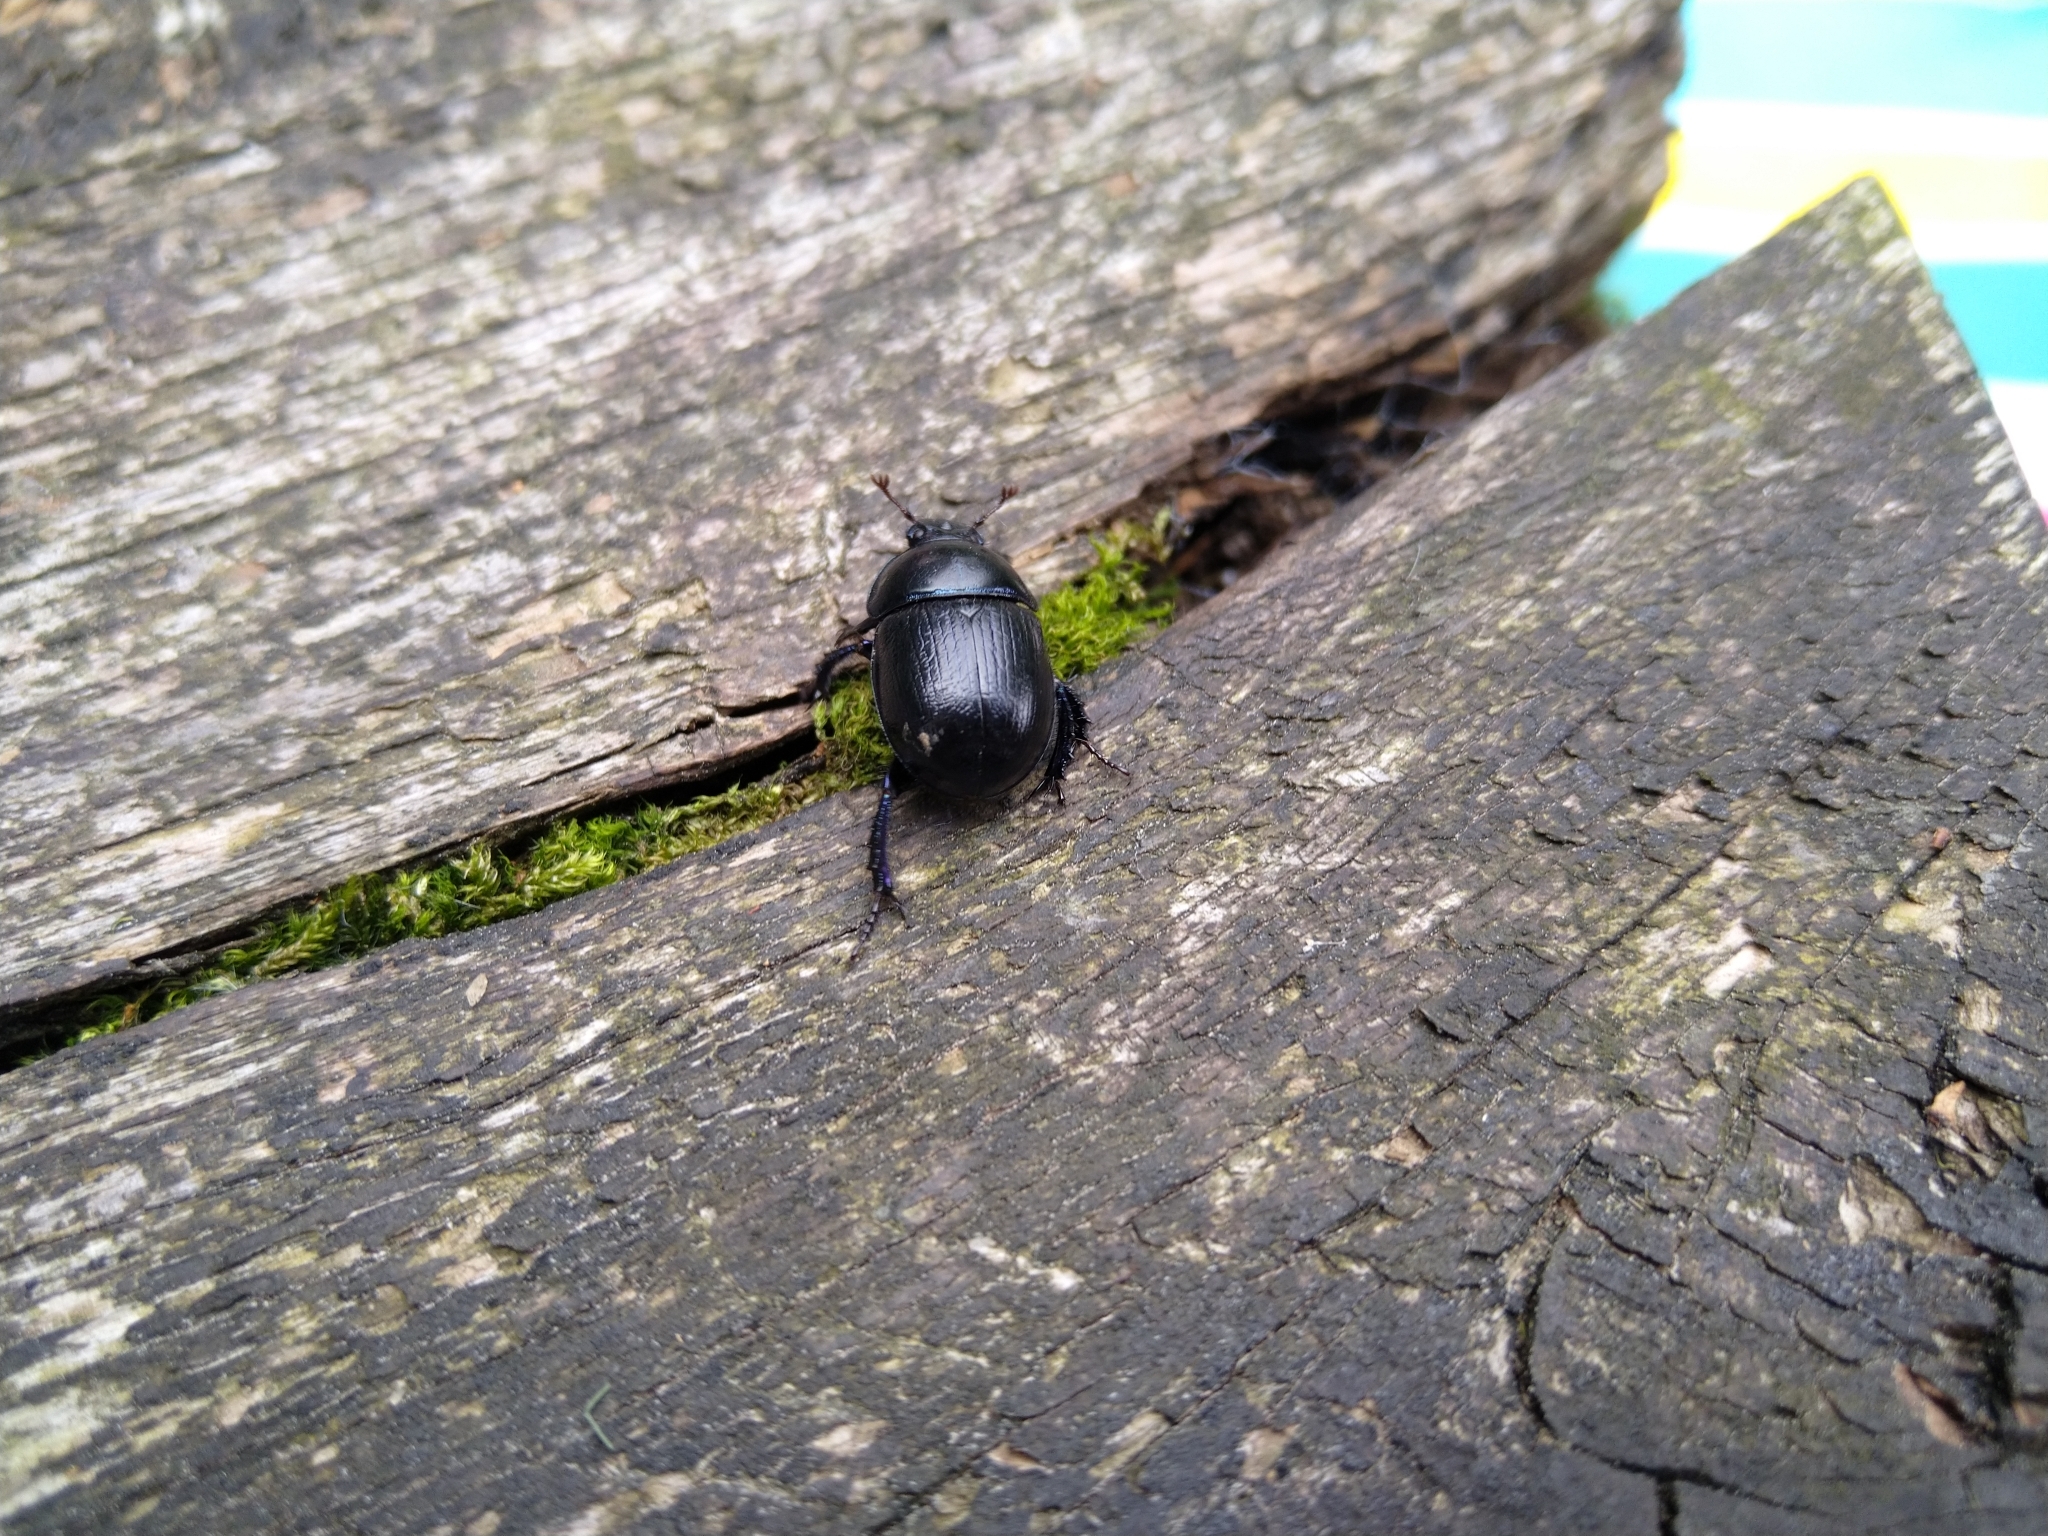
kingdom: Animalia
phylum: Arthropoda
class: Insecta
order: Coleoptera
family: Geotrupidae
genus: Anoplotrupes
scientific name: Anoplotrupes stercorosus
